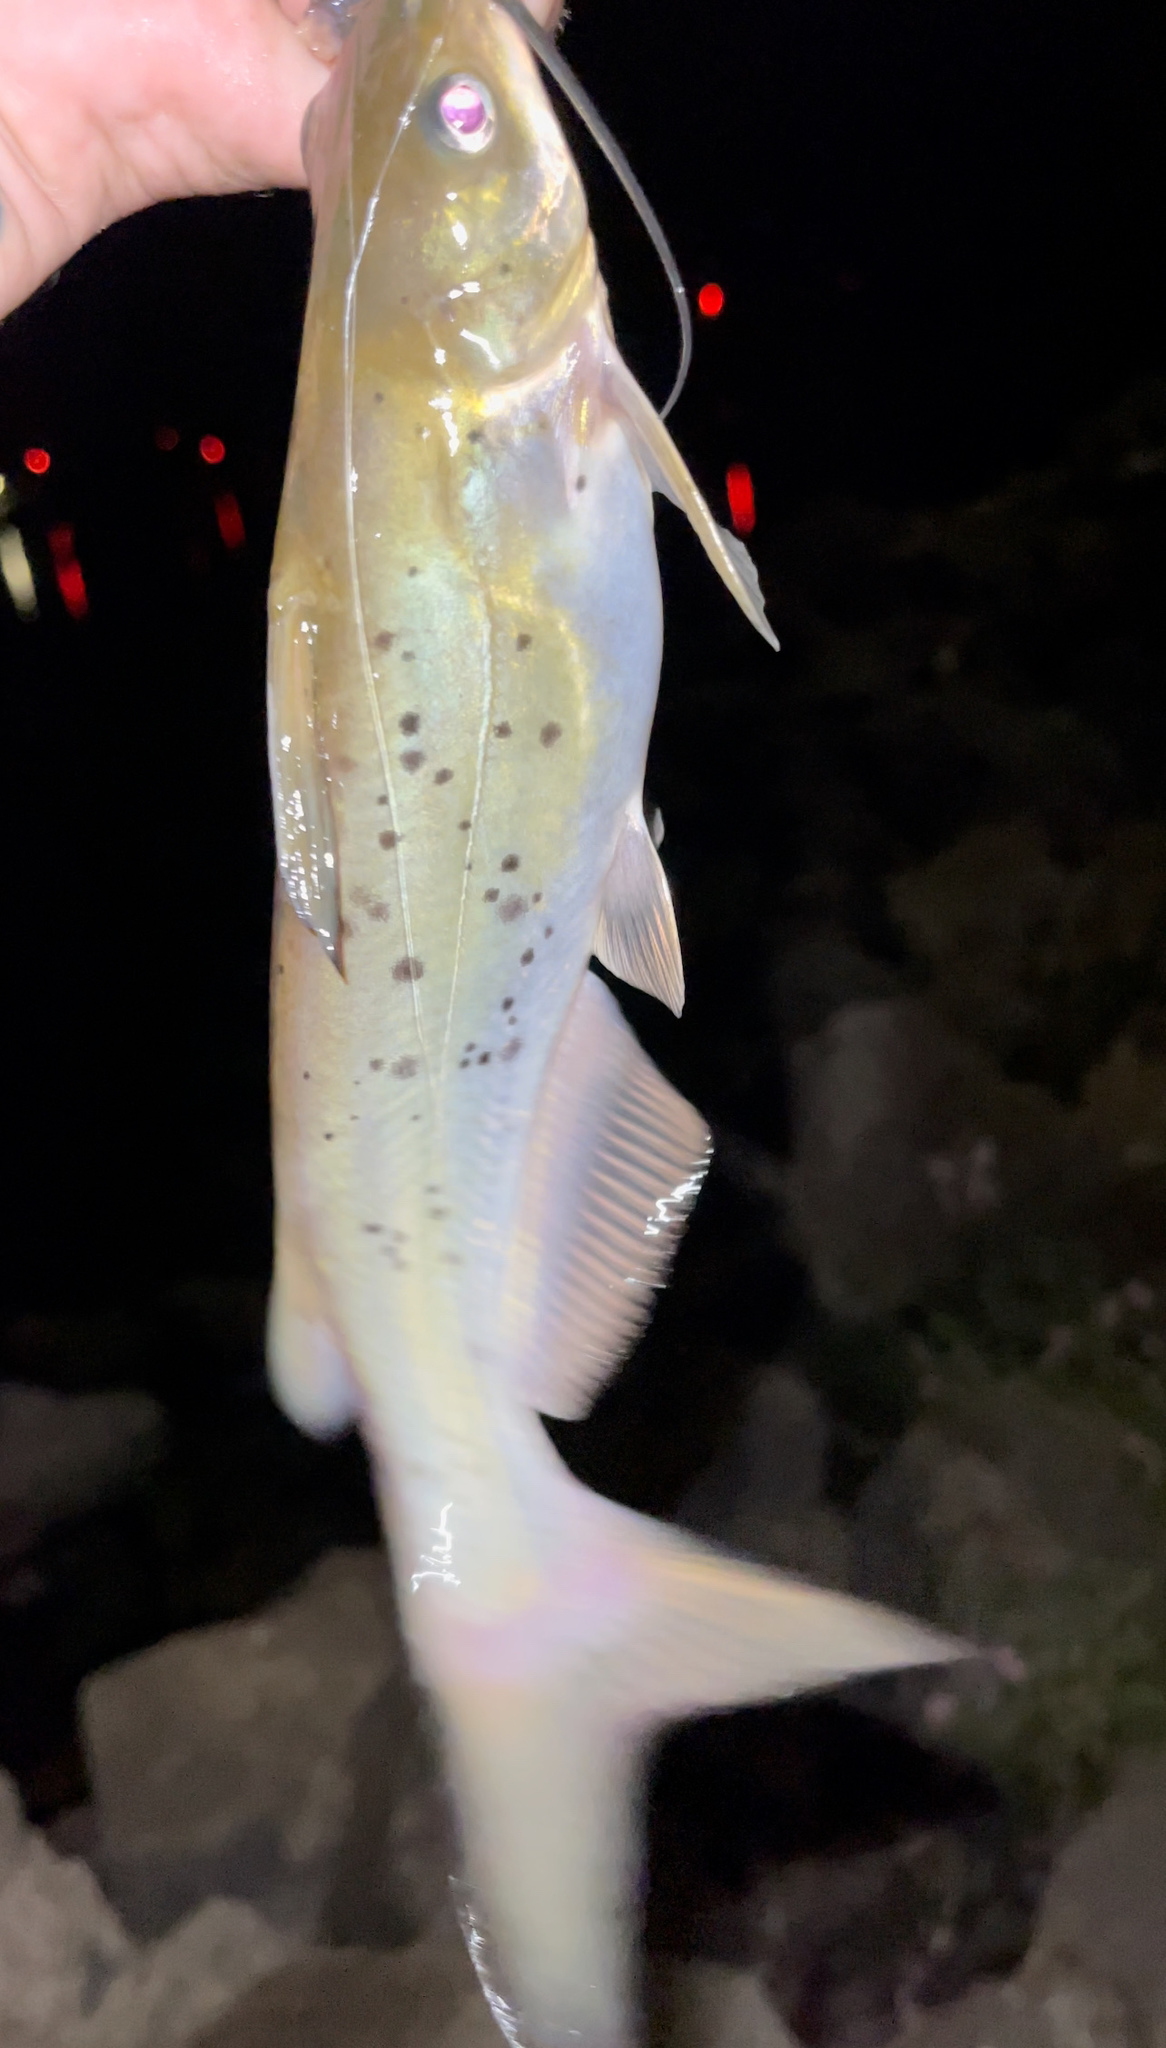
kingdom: Animalia
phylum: Chordata
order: Siluriformes
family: Ictaluridae
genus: Ictalurus
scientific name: Ictalurus punctatus
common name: Channel catfish
